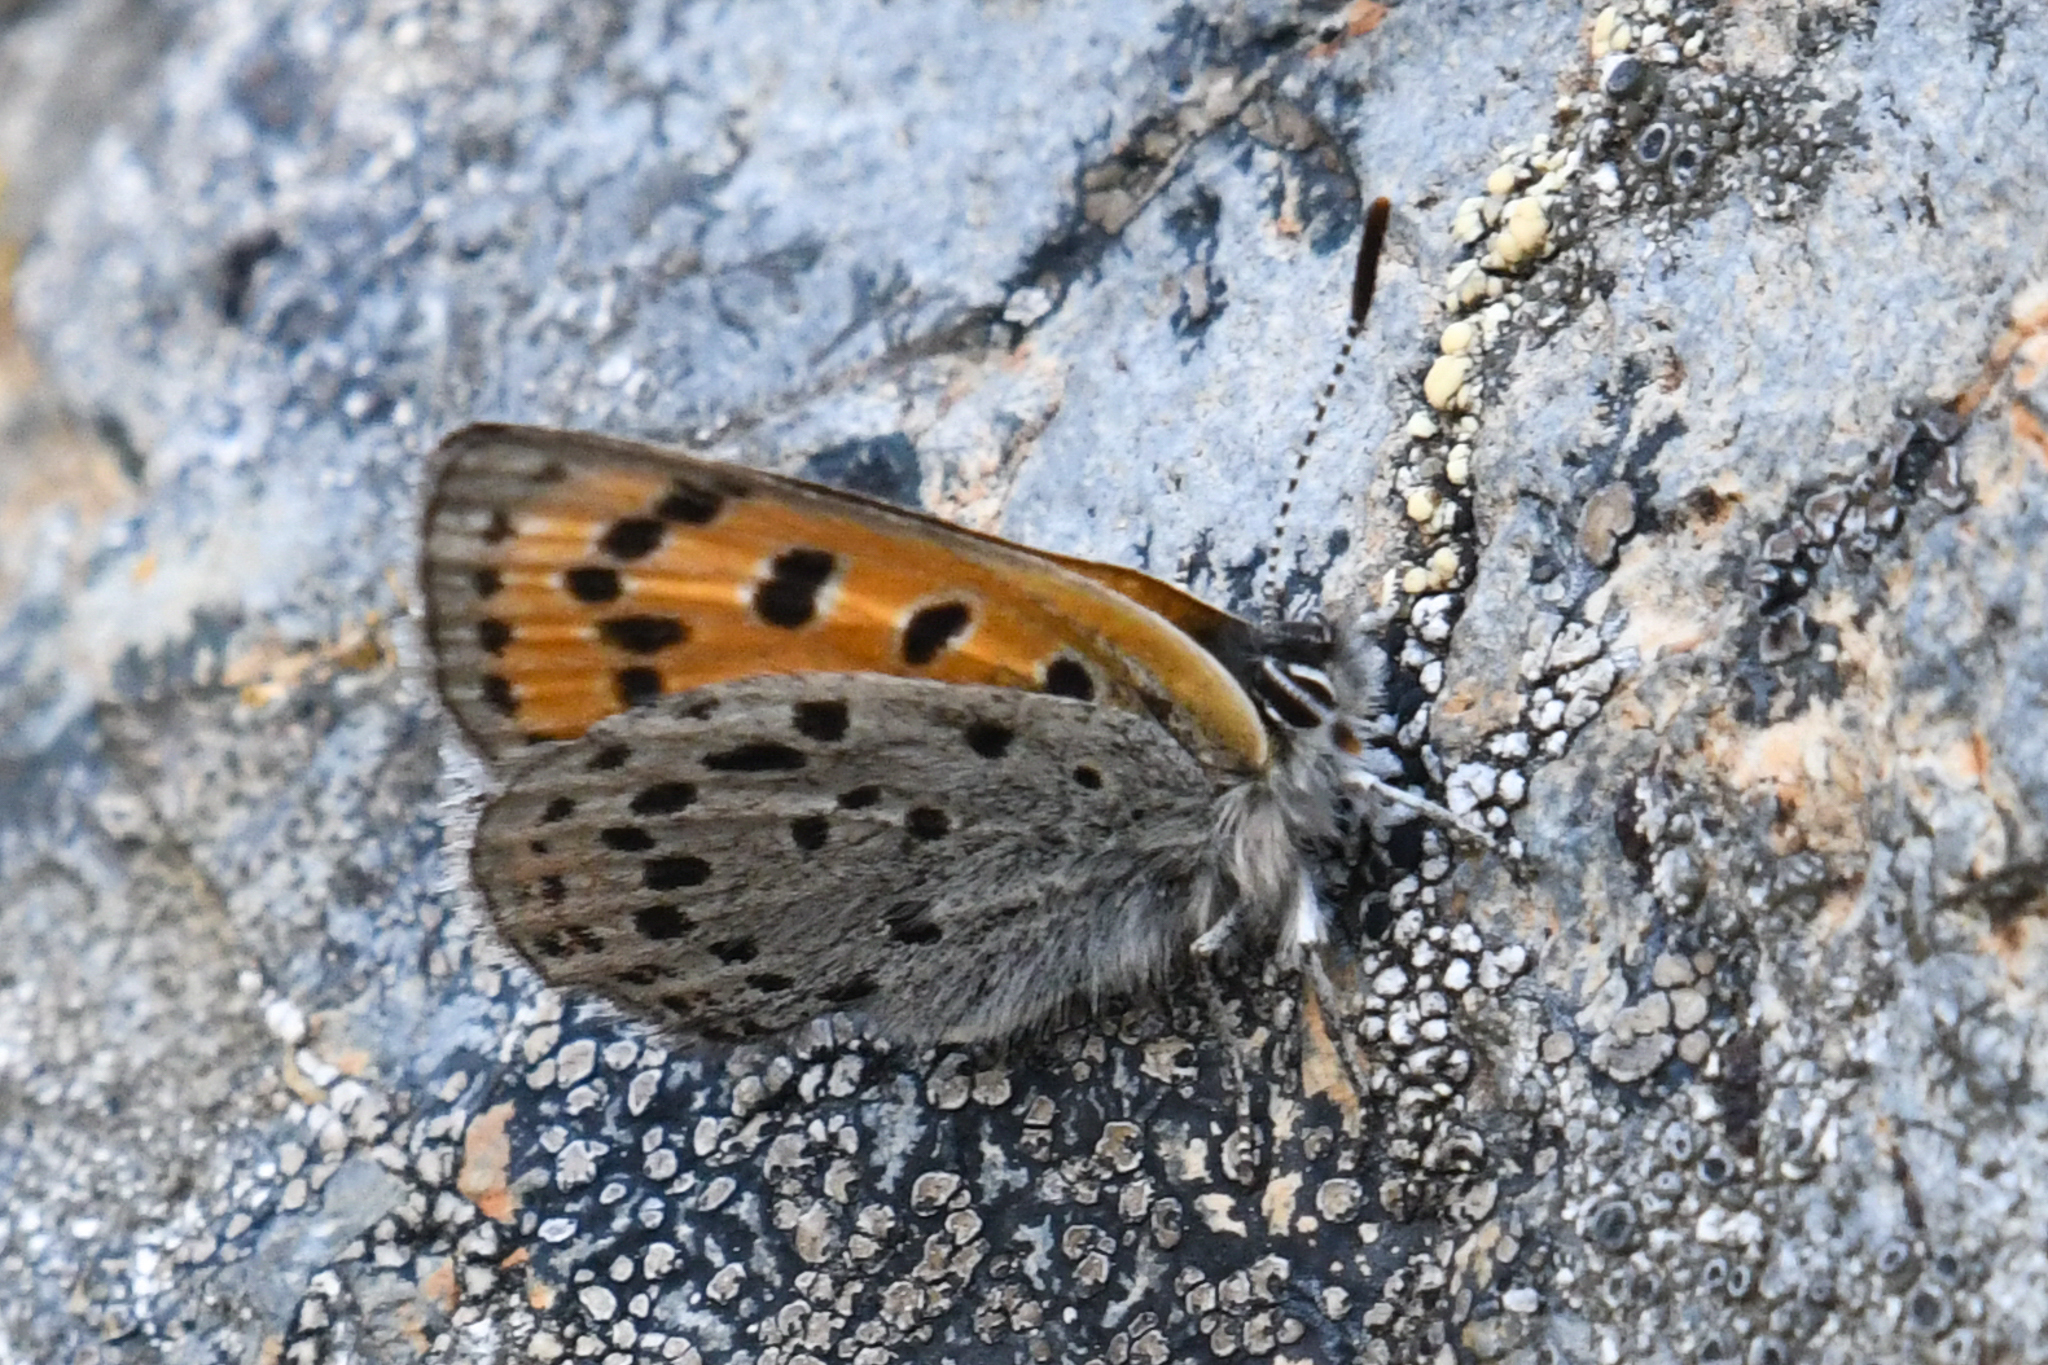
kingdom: Animalia
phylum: Arthropoda
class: Insecta
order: Lepidoptera
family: Lycaenidae
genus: Lycaena
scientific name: Lycaena cupreus
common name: Lustrous copper
